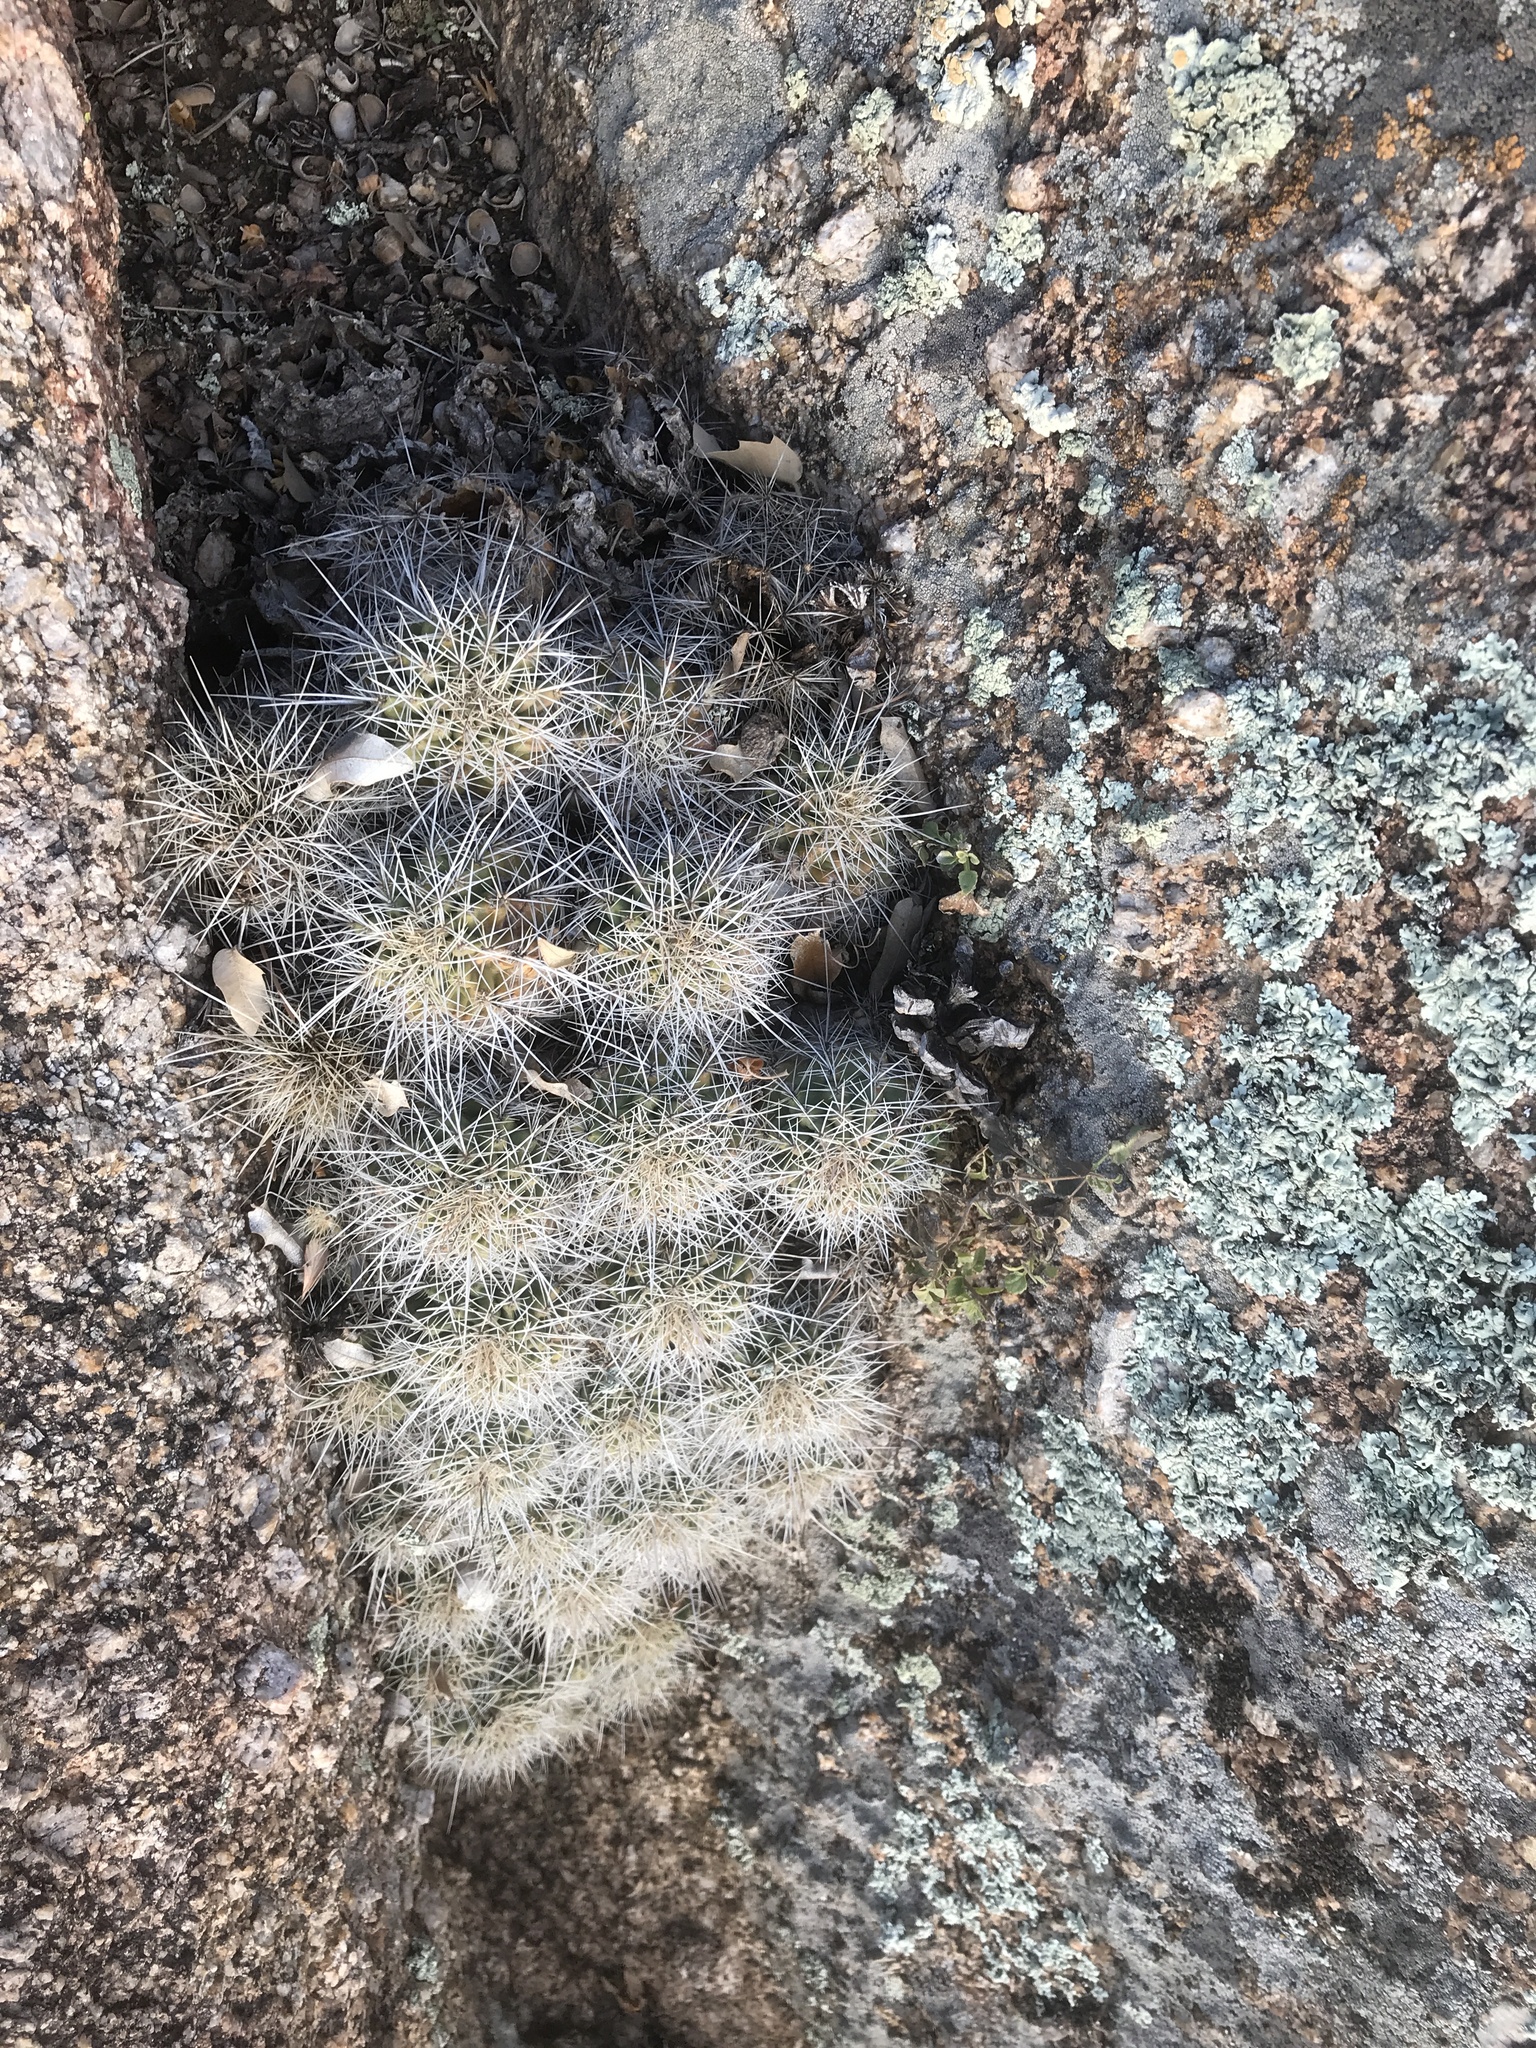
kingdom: Plantae
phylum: Tracheophyta
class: Magnoliopsida
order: Caryophyllales
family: Cactaceae
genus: Echinocereus
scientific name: Echinocereus coccineus
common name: Scarlet hedgehog cactus
